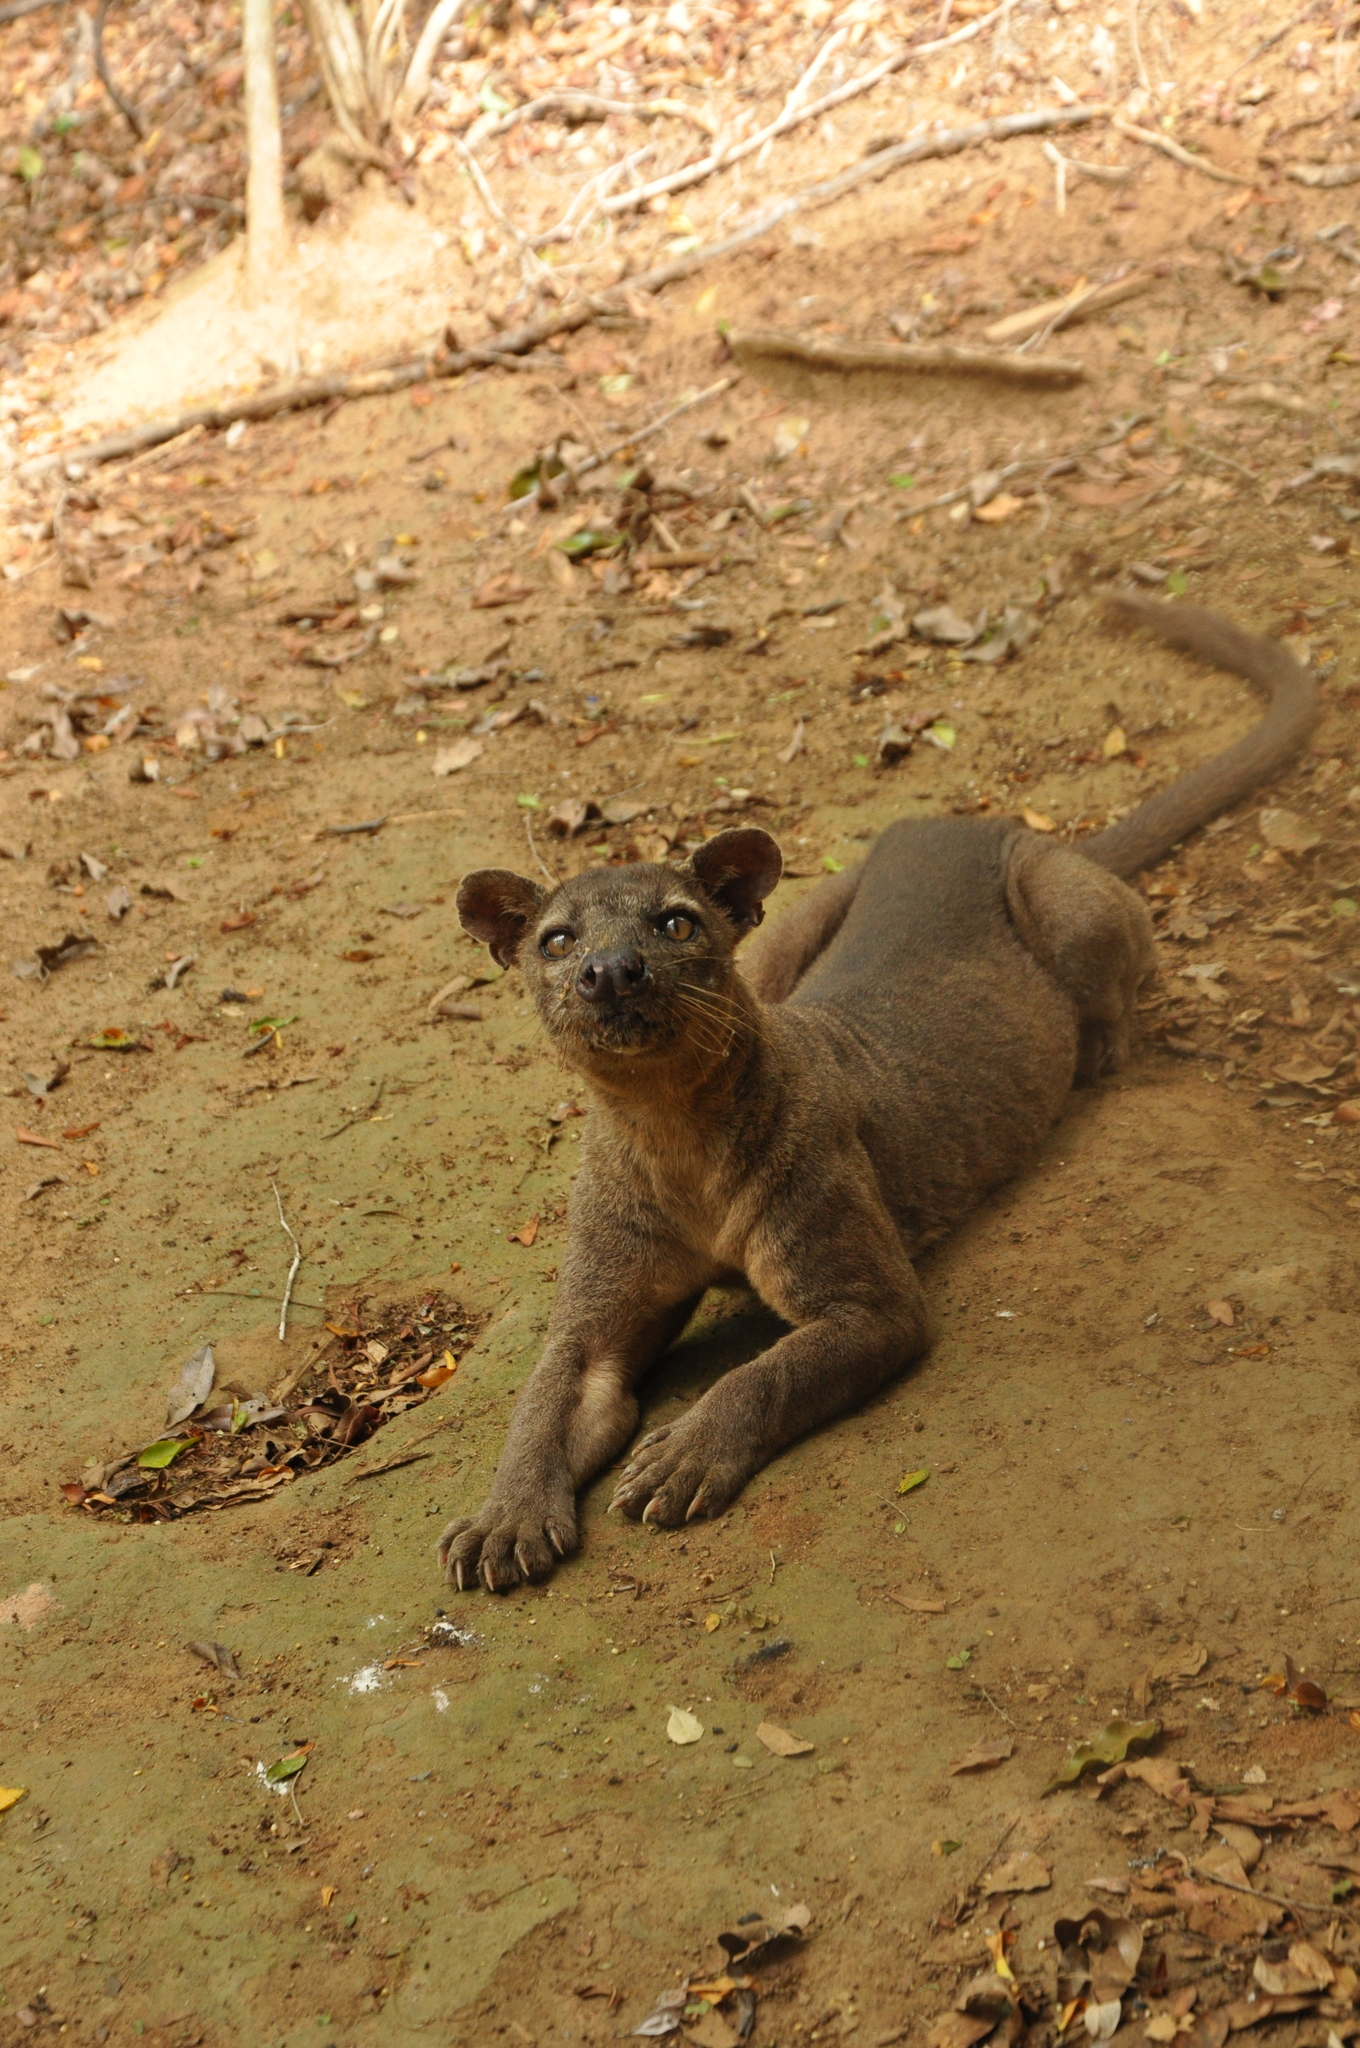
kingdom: Animalia
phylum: Chordata
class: Mammalia
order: Carnivora
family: Eupleridae
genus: Cryptoprocta
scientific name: Cryptoprocta ferox
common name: Fossa
